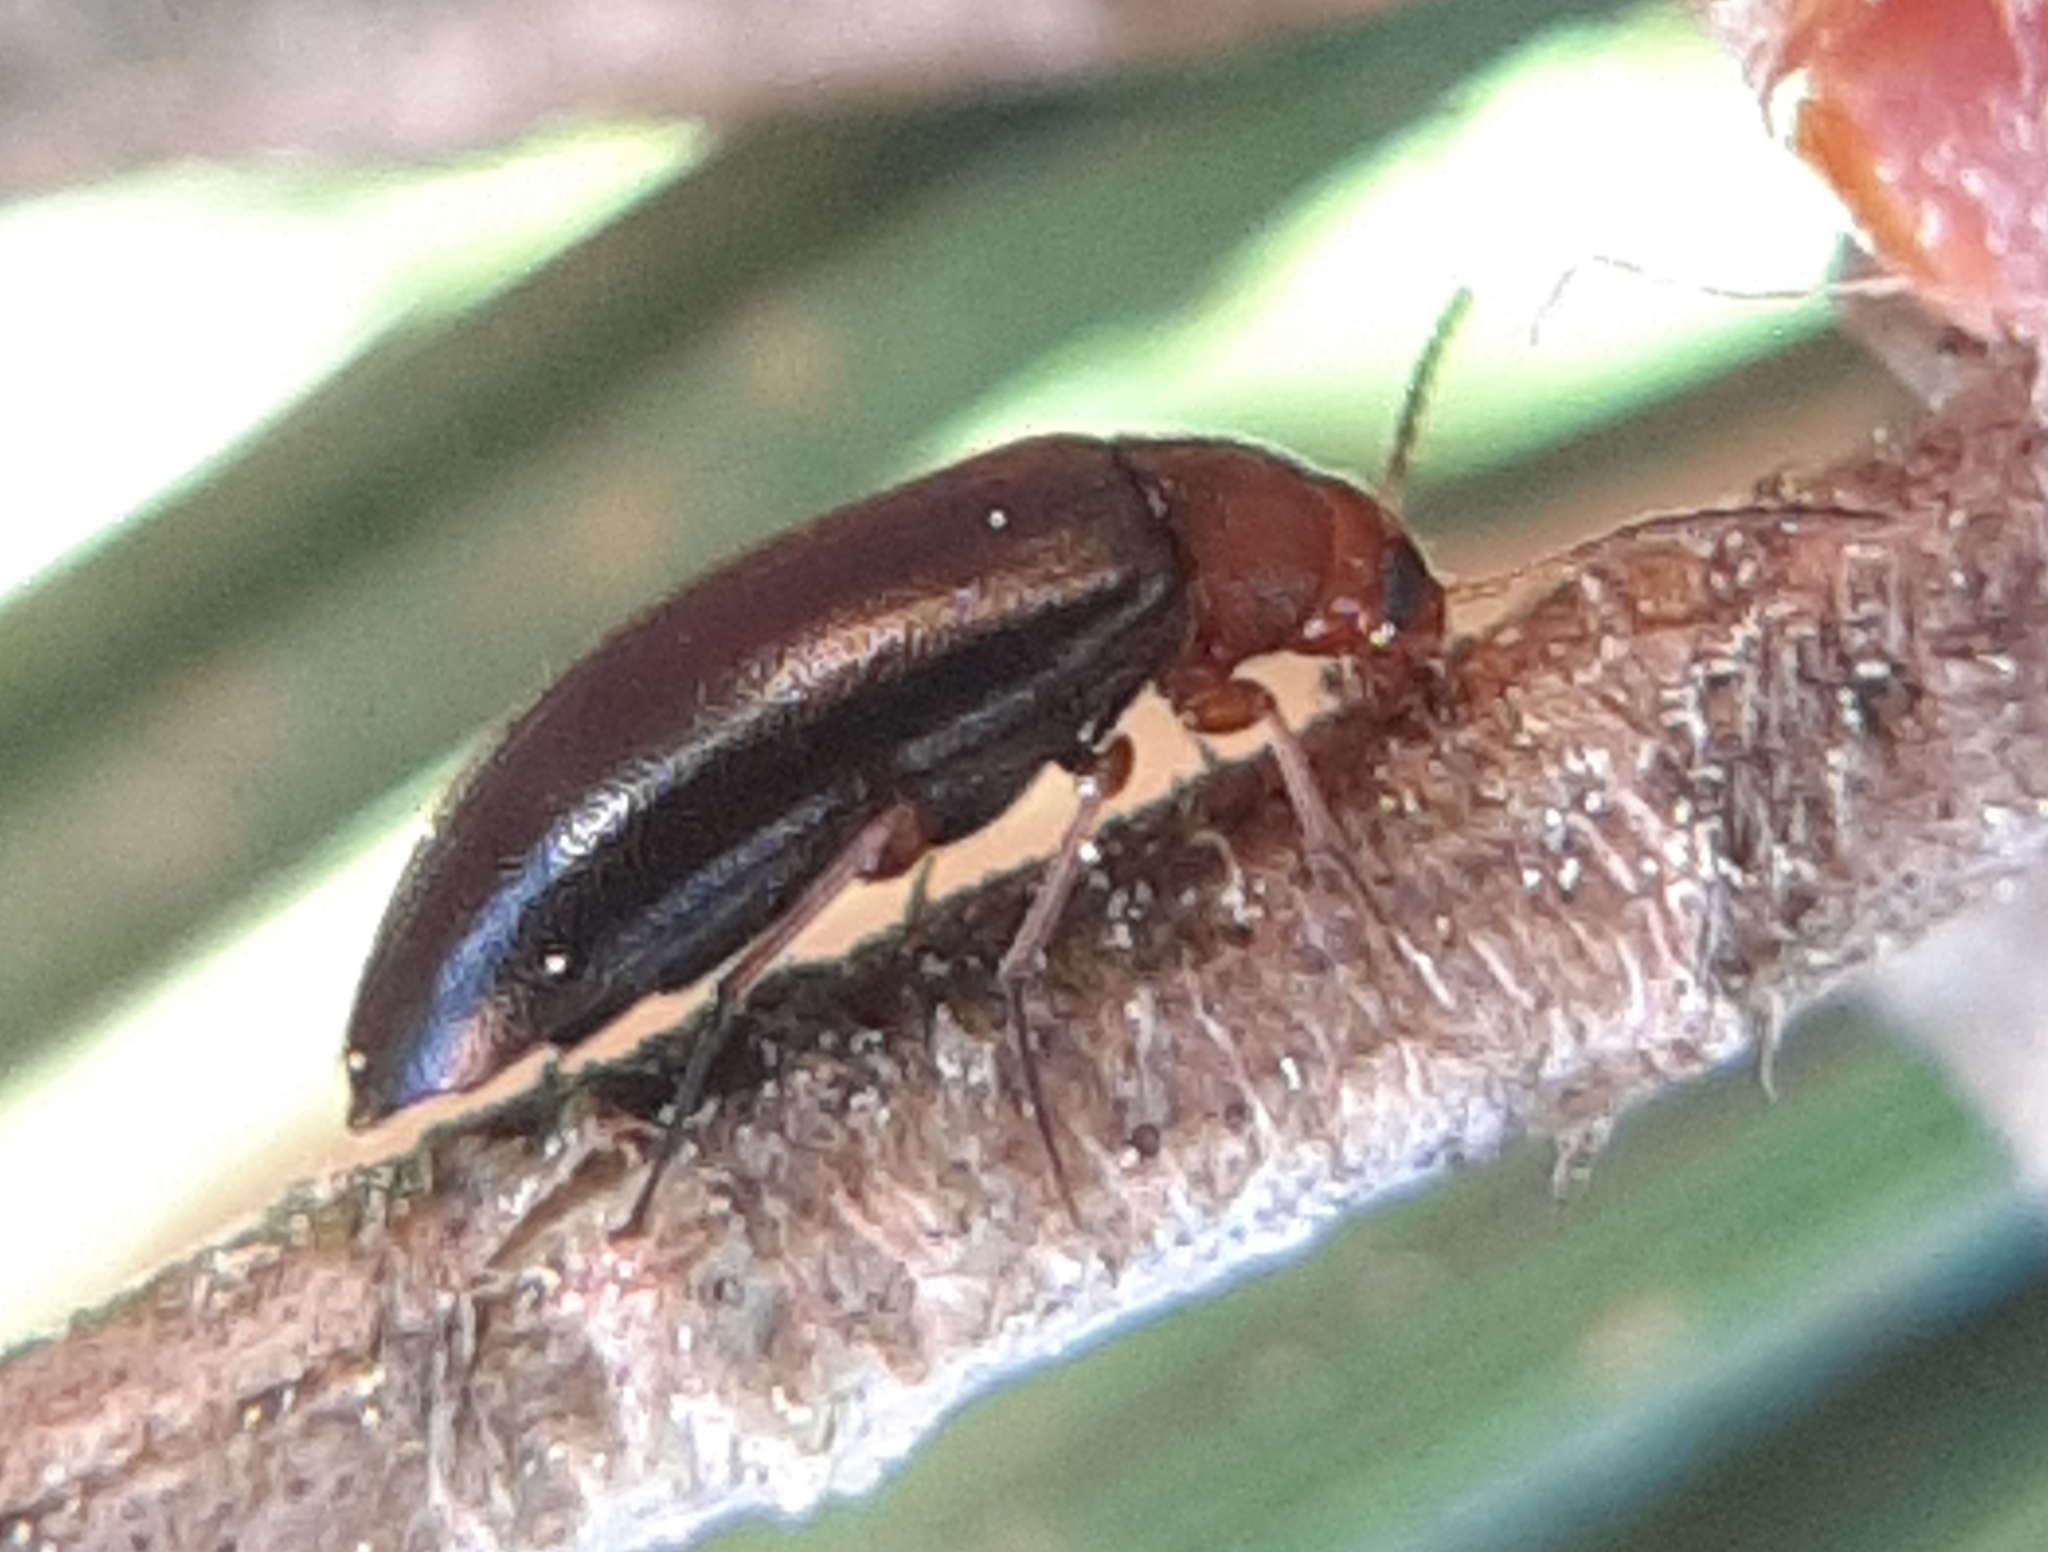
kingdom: Animalia
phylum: Arthropoda
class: Insecta
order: Coleoptera
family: Melandryidae
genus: Symphora
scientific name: Symphora flavicollis
